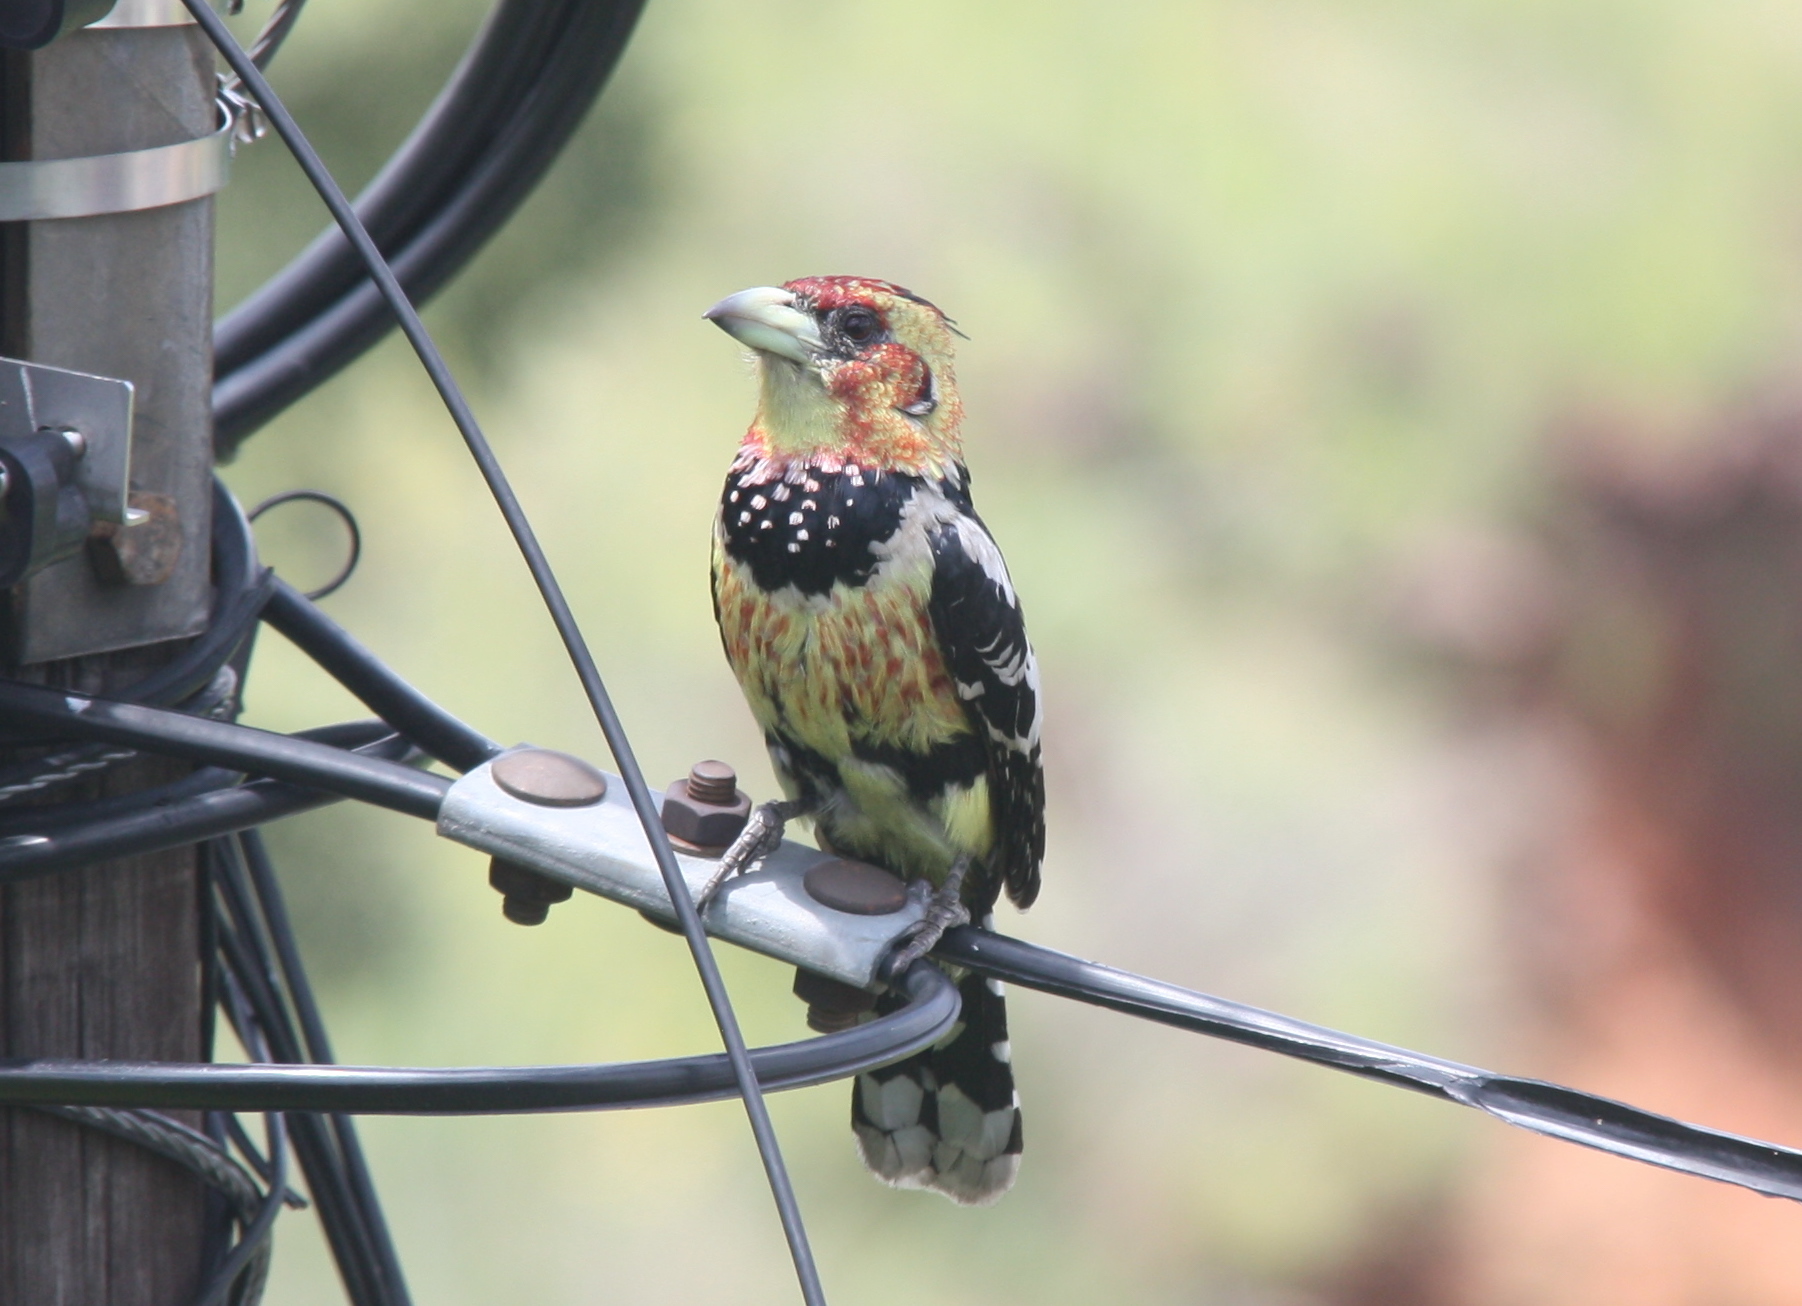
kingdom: Animalia
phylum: Chordata
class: Aves
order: Piciformes
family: Lybiidae
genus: Trachyphonus
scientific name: Trachyphonus vaillantii
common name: Crested barbet
